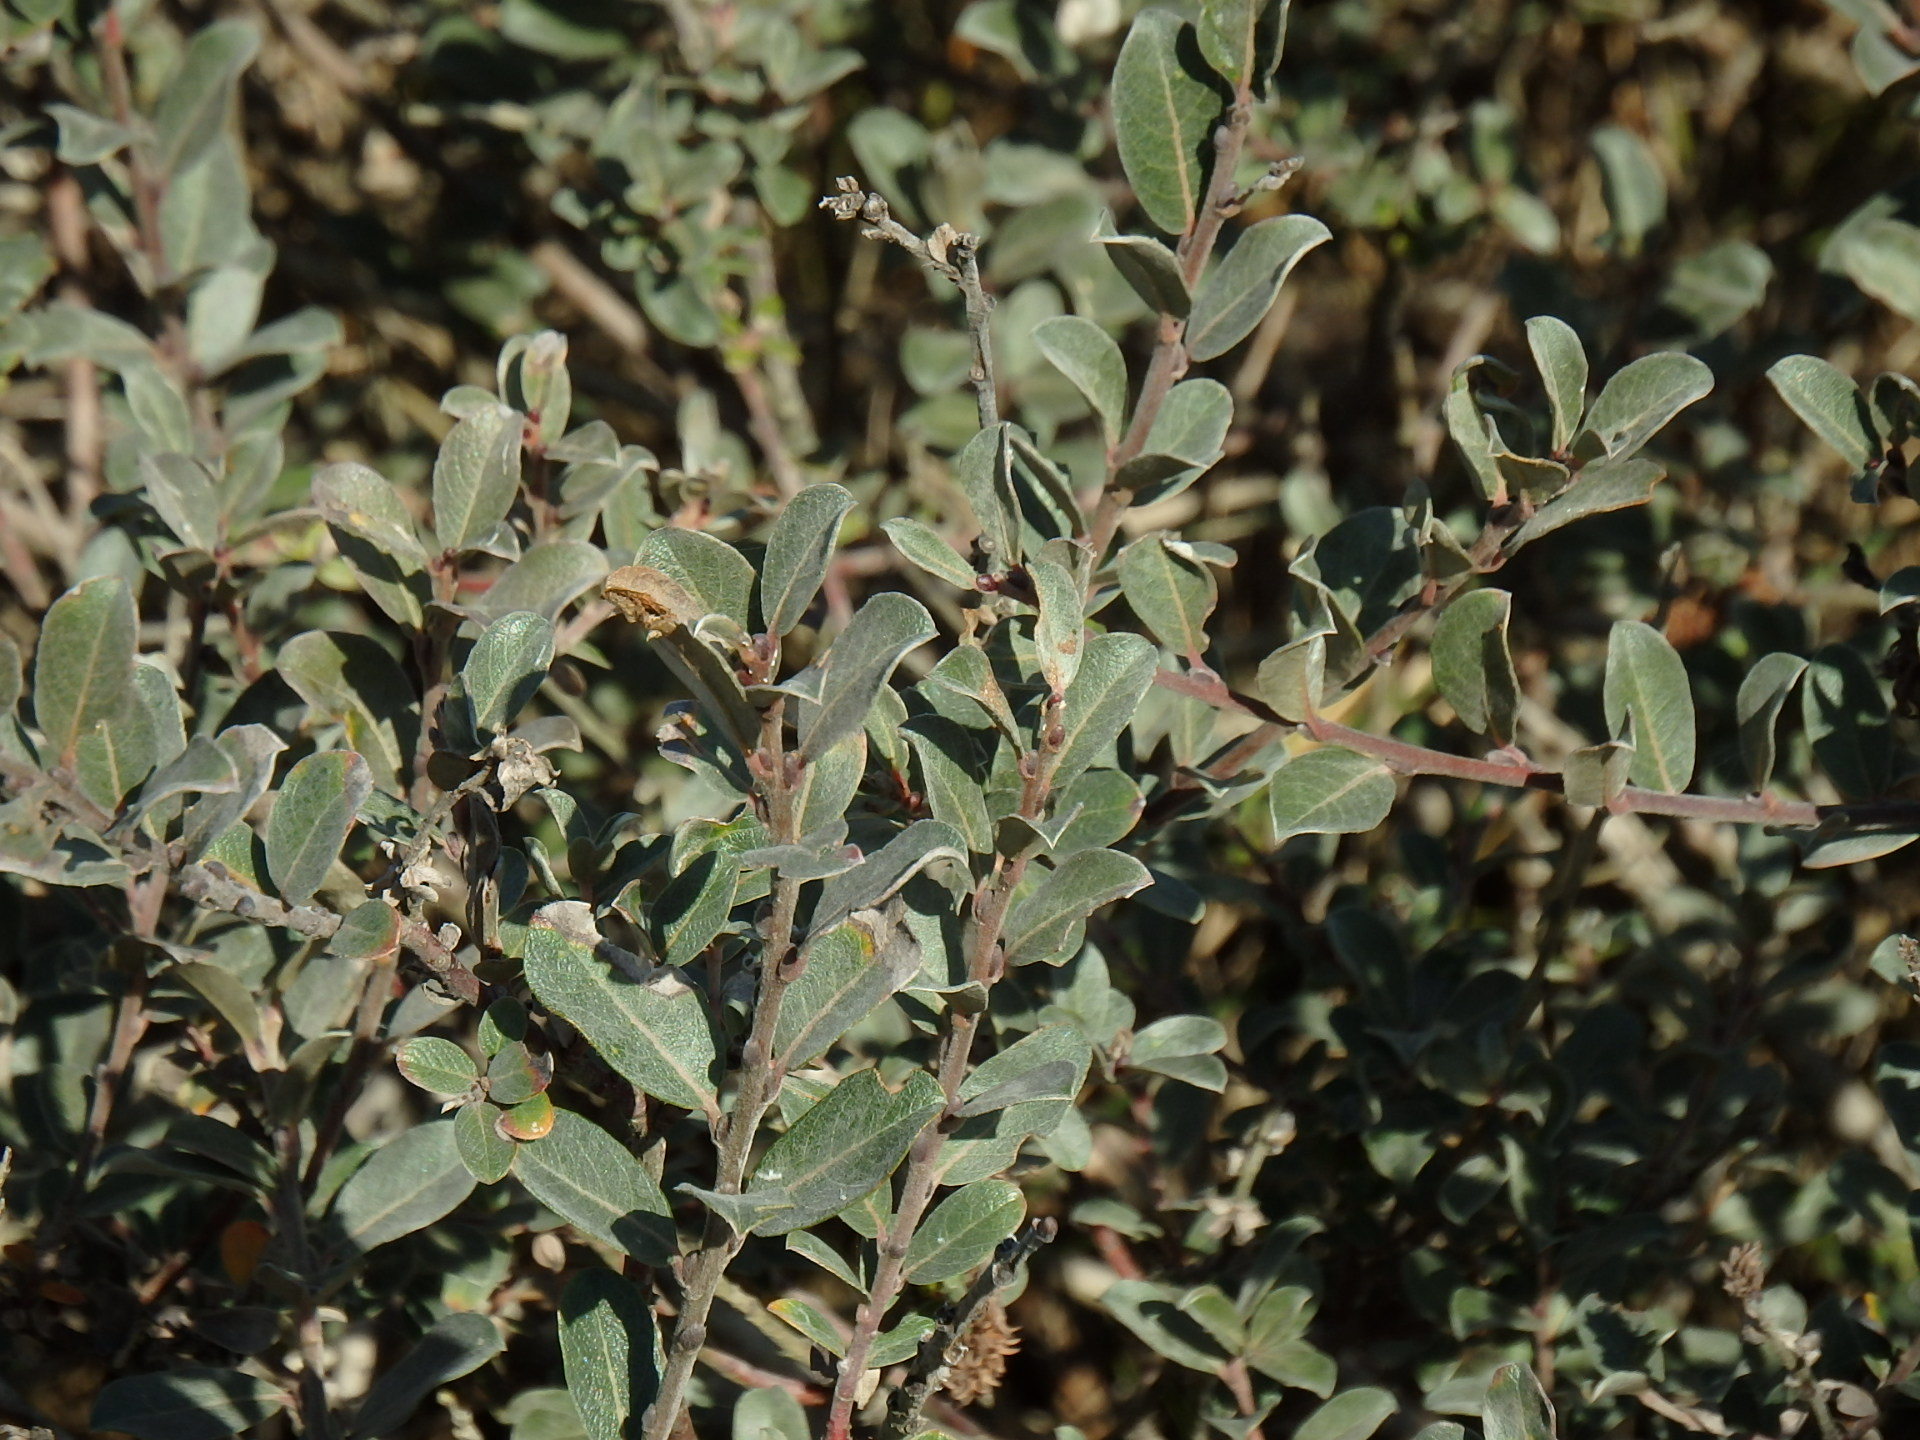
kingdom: Plantae
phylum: Tracheophyta
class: Magnoliopsida
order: Malpighiales
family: Salicaceae
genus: Salix
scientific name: Salix repens
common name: Creeping willow
